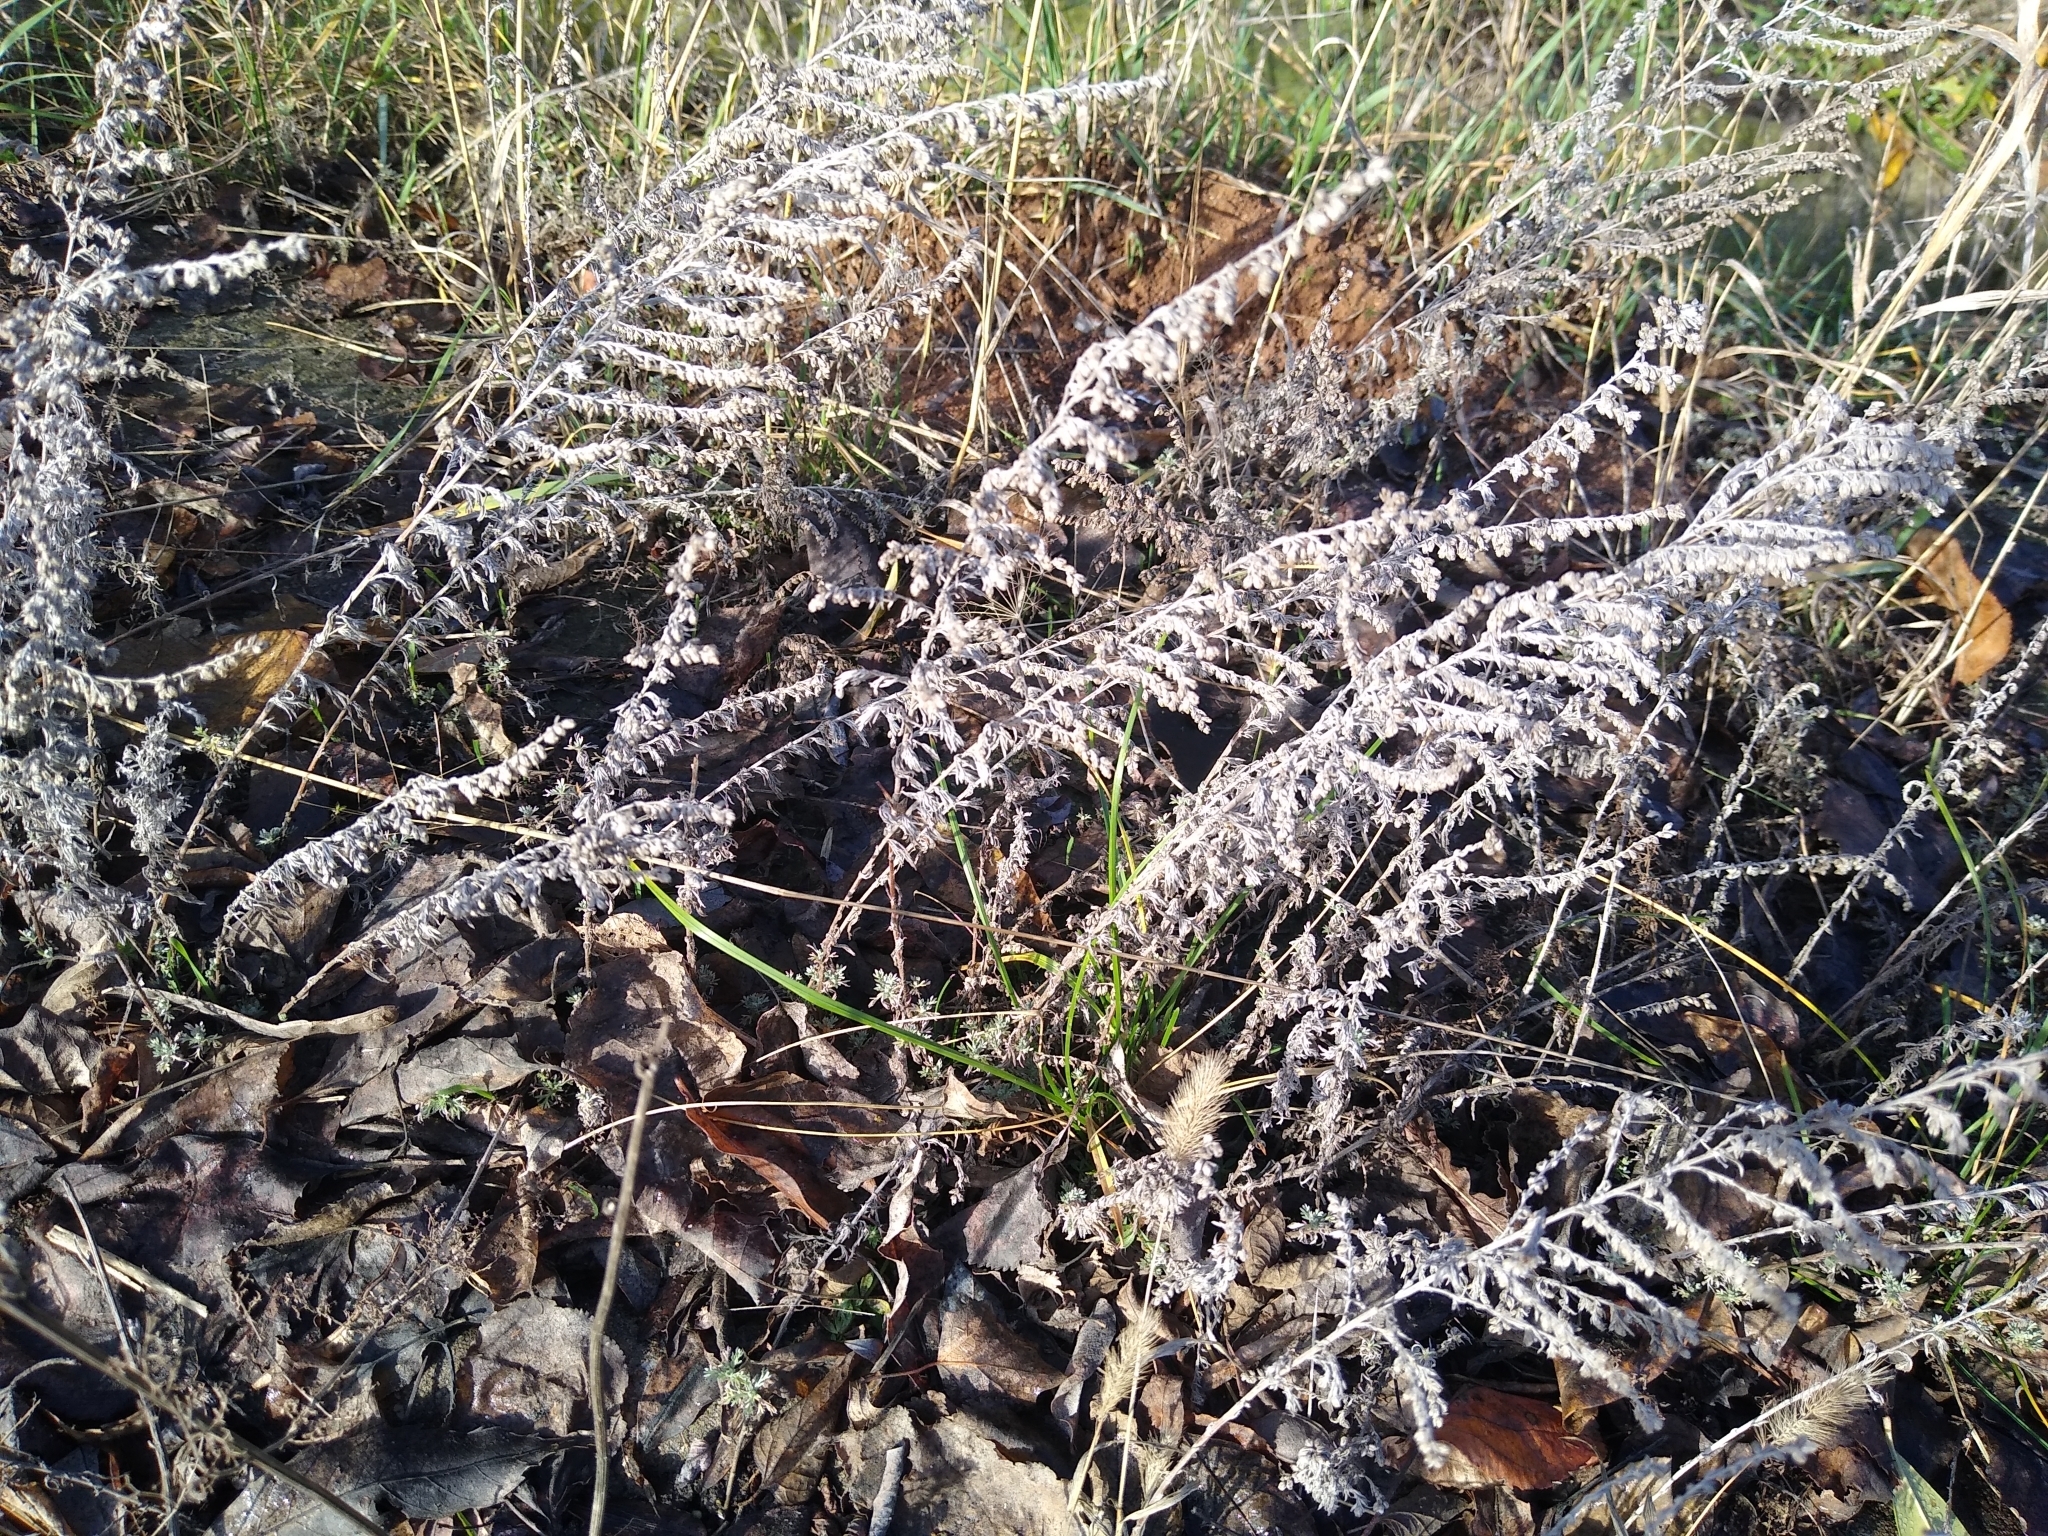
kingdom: Plantae
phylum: Tracheophyta
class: Magnoliopsida
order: Asterales
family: Asteraceae
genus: Artemisia
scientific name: Artemisia austriaca
